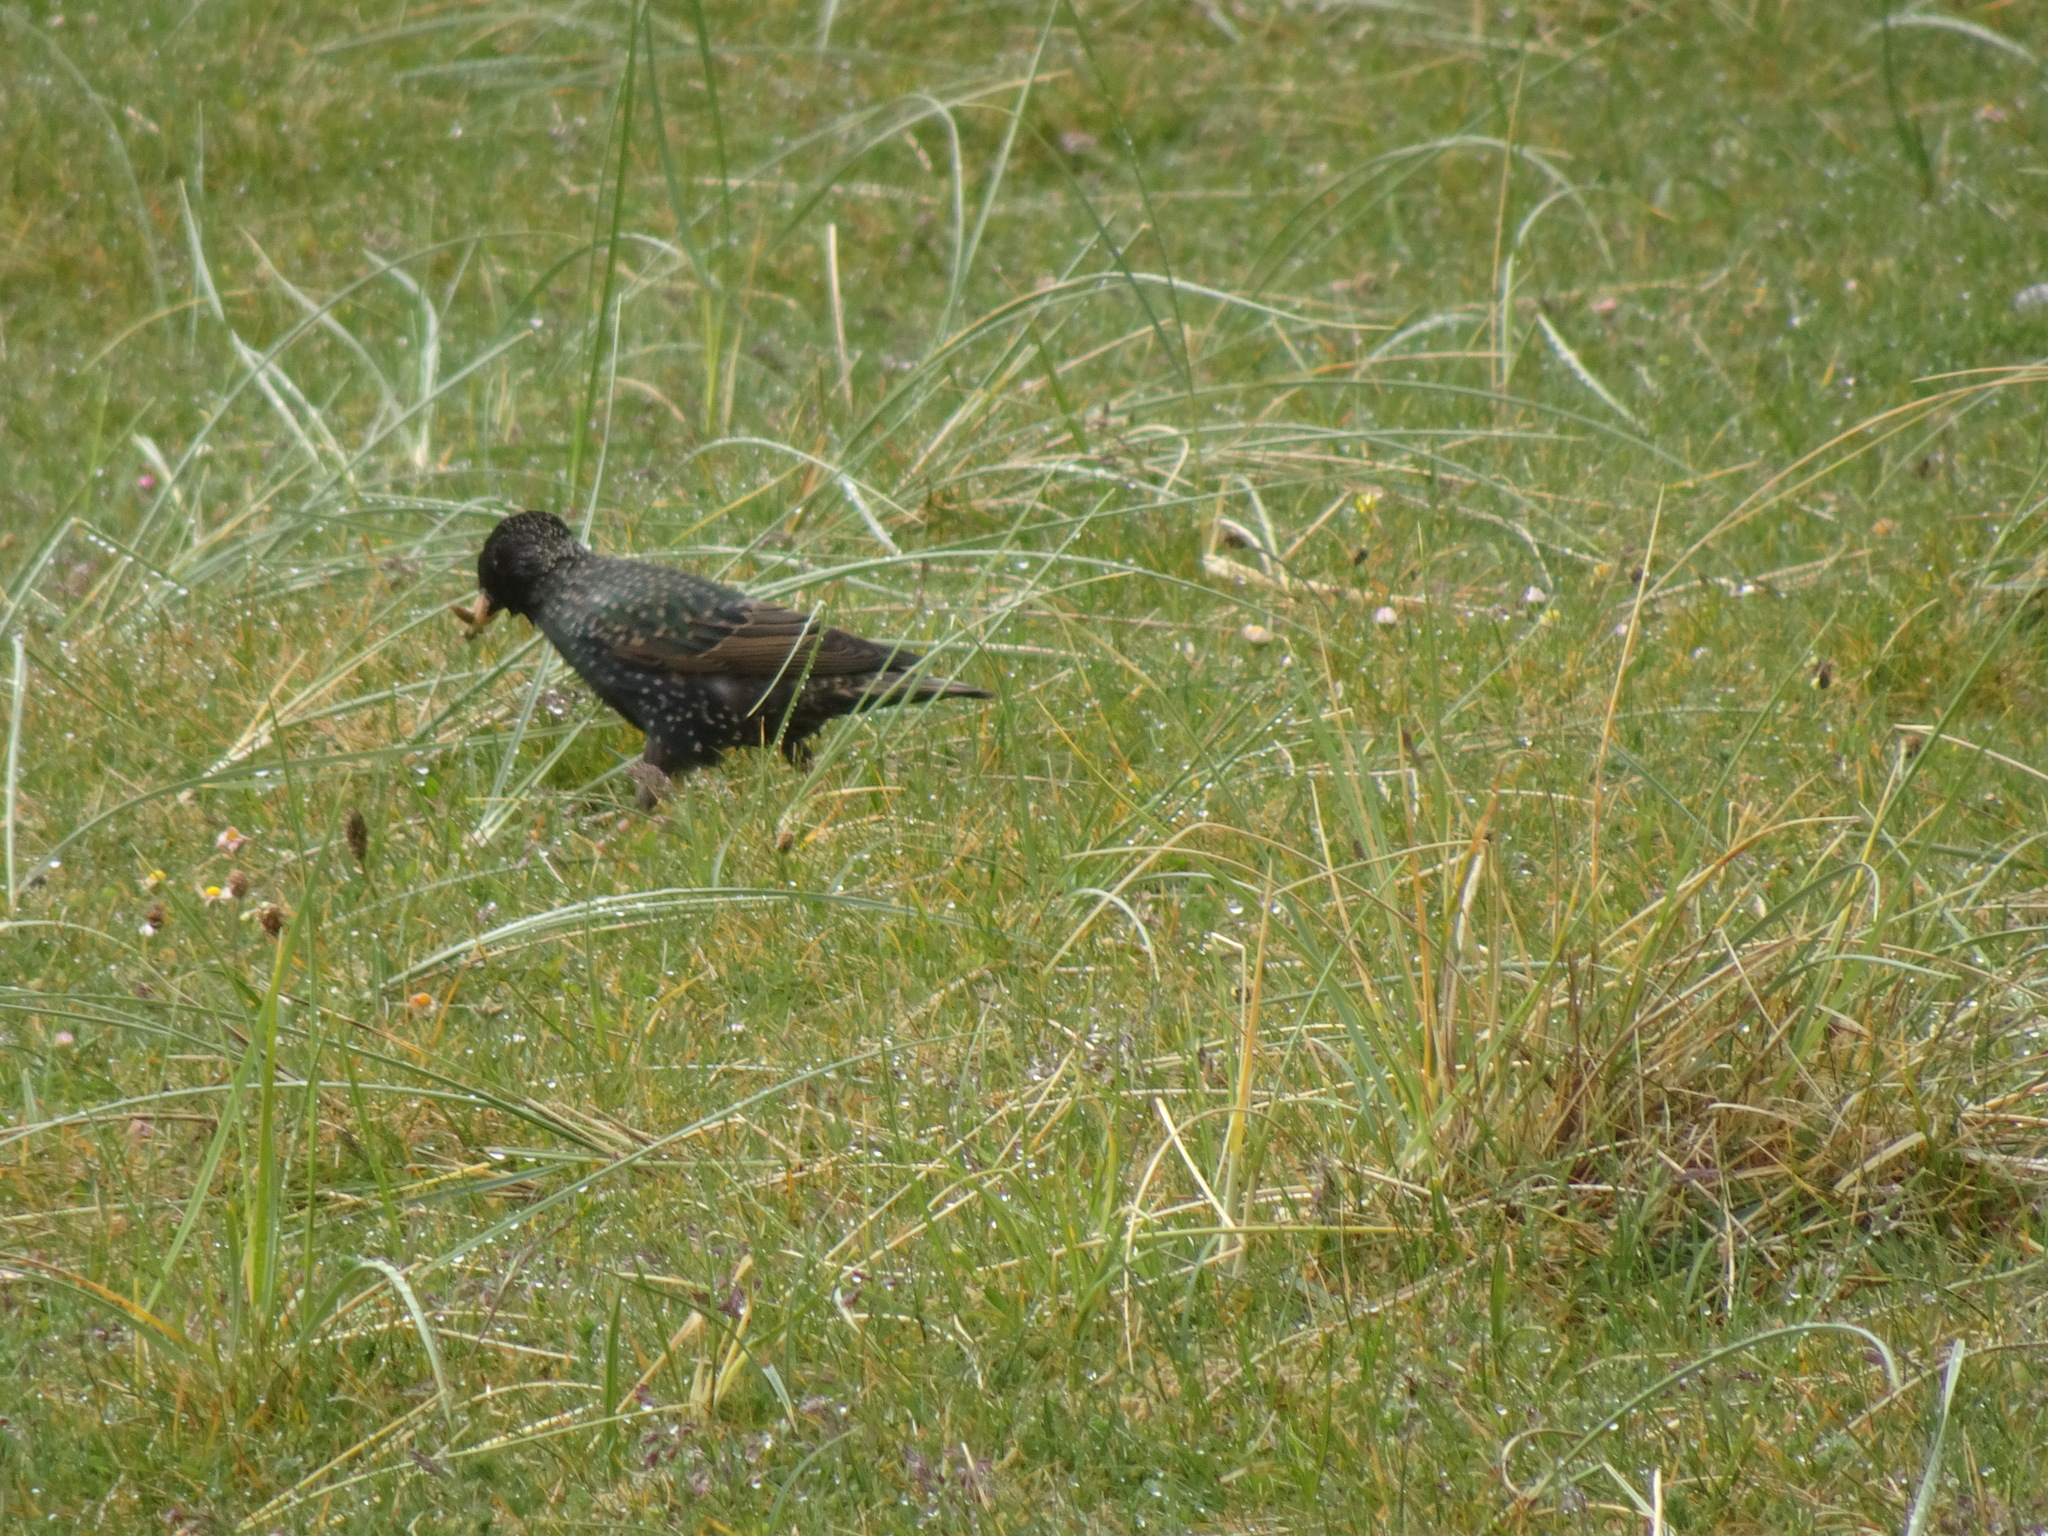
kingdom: Animalia
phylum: Chordata
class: Aves
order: Passeriformes
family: Sturnidae
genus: Sturnus
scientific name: Sturnus vulgaris
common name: Common starling
